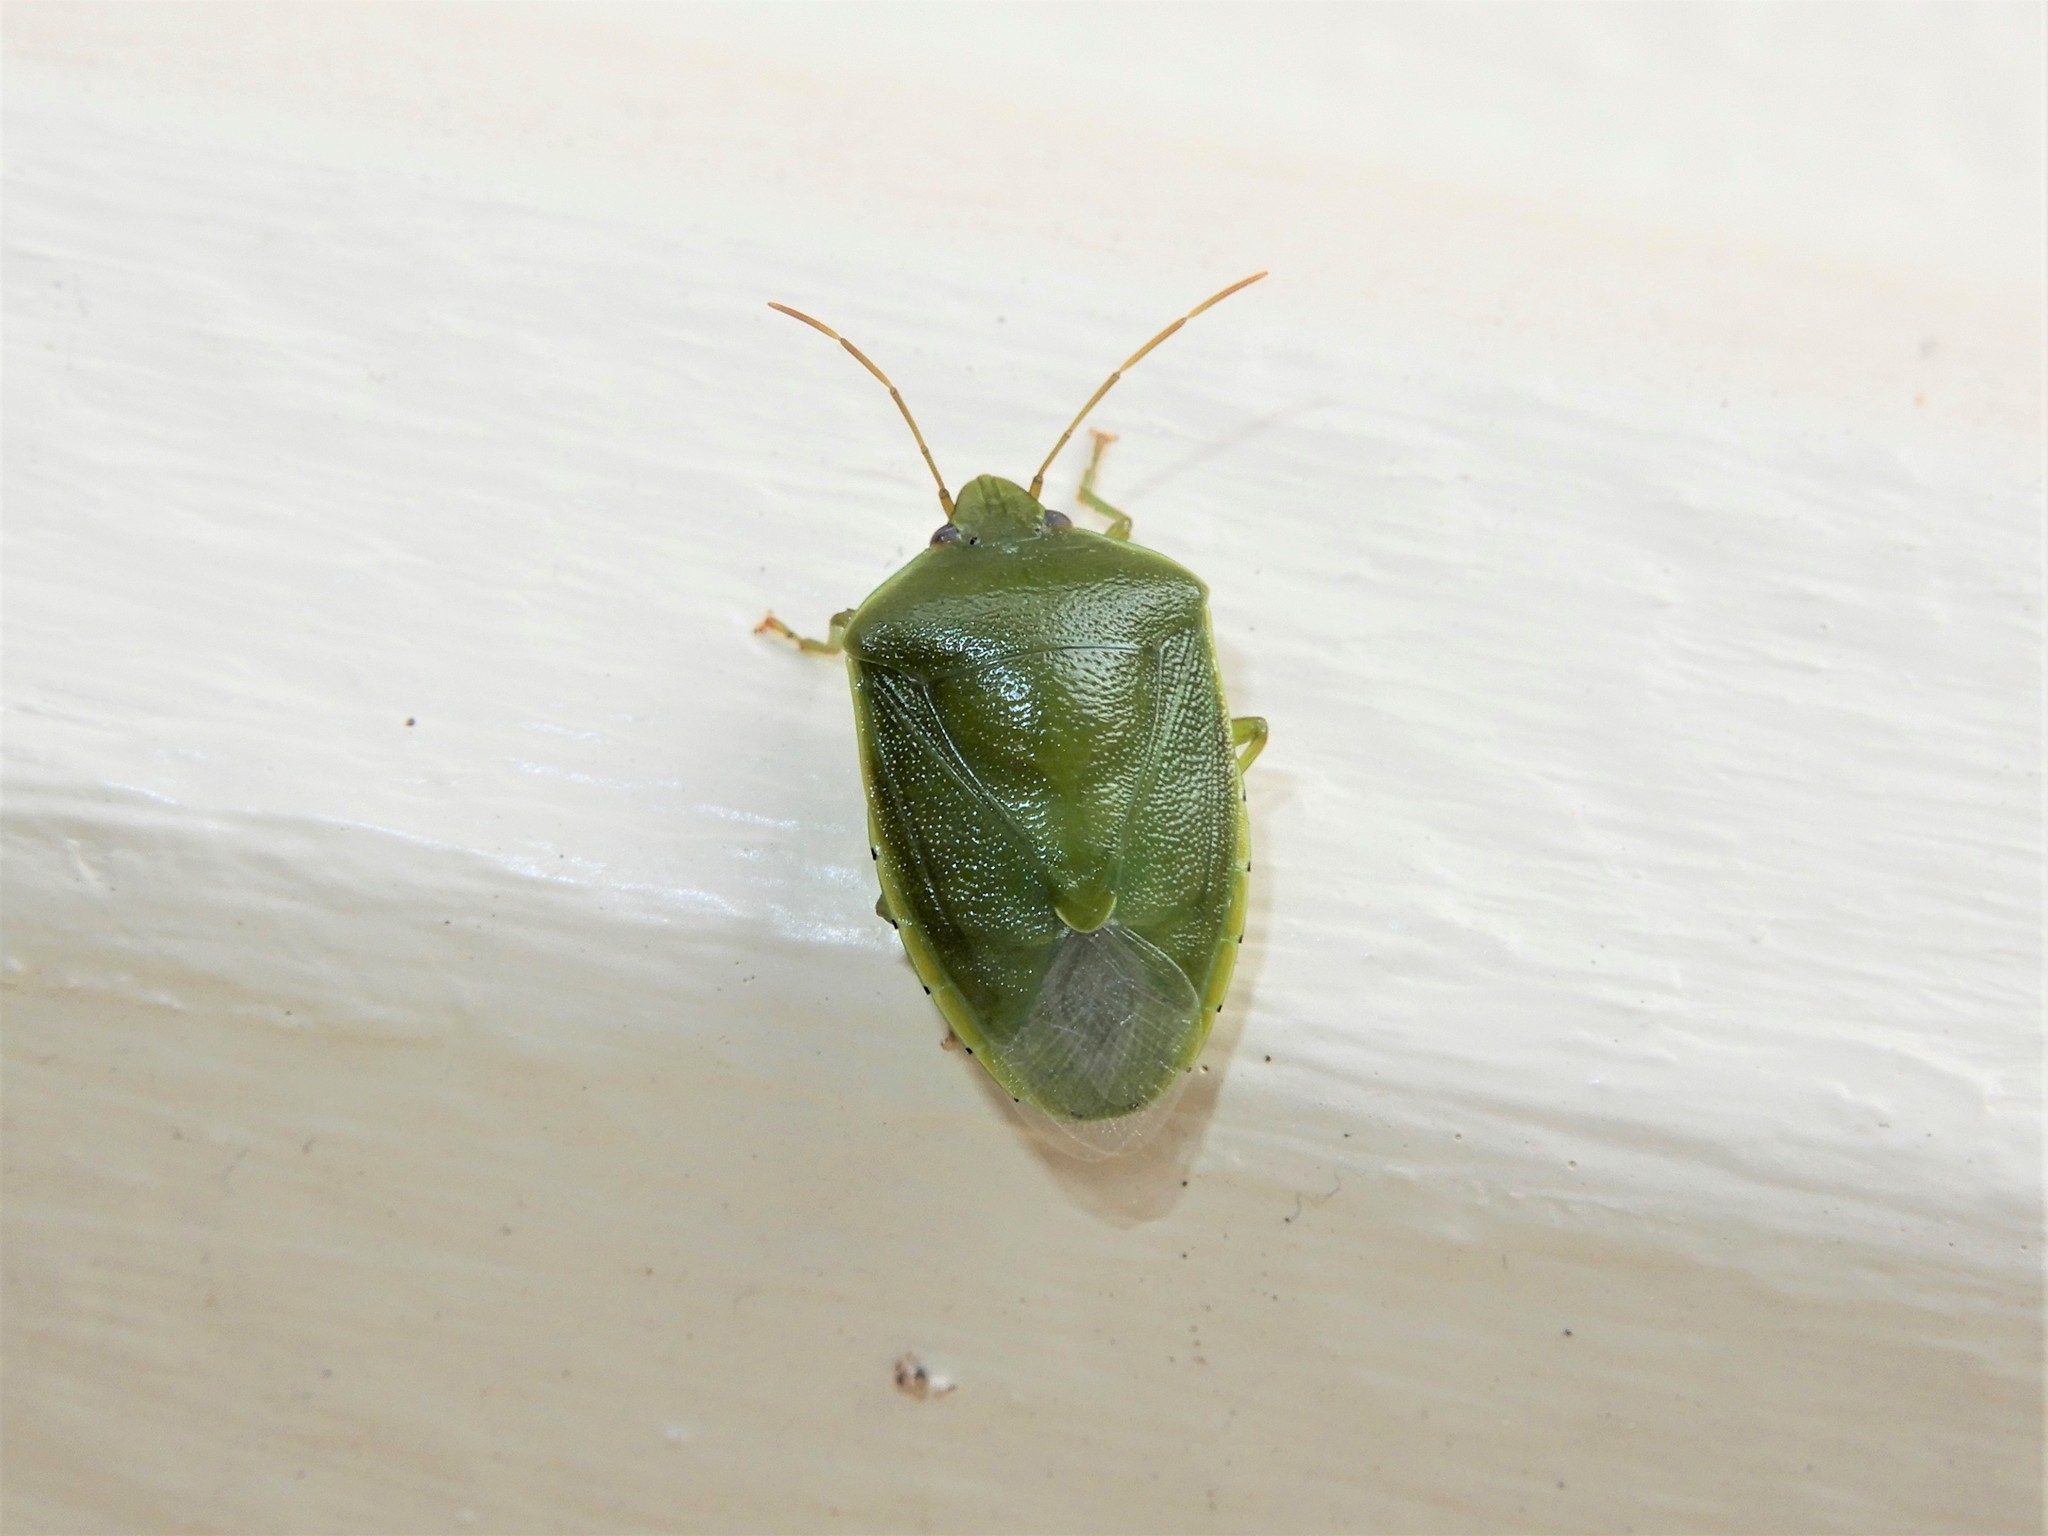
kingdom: Animalia
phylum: Arthropoda
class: Insecta
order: Hemiptera
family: Pentatomidae
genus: Glaucias
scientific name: Glaucias amyota
